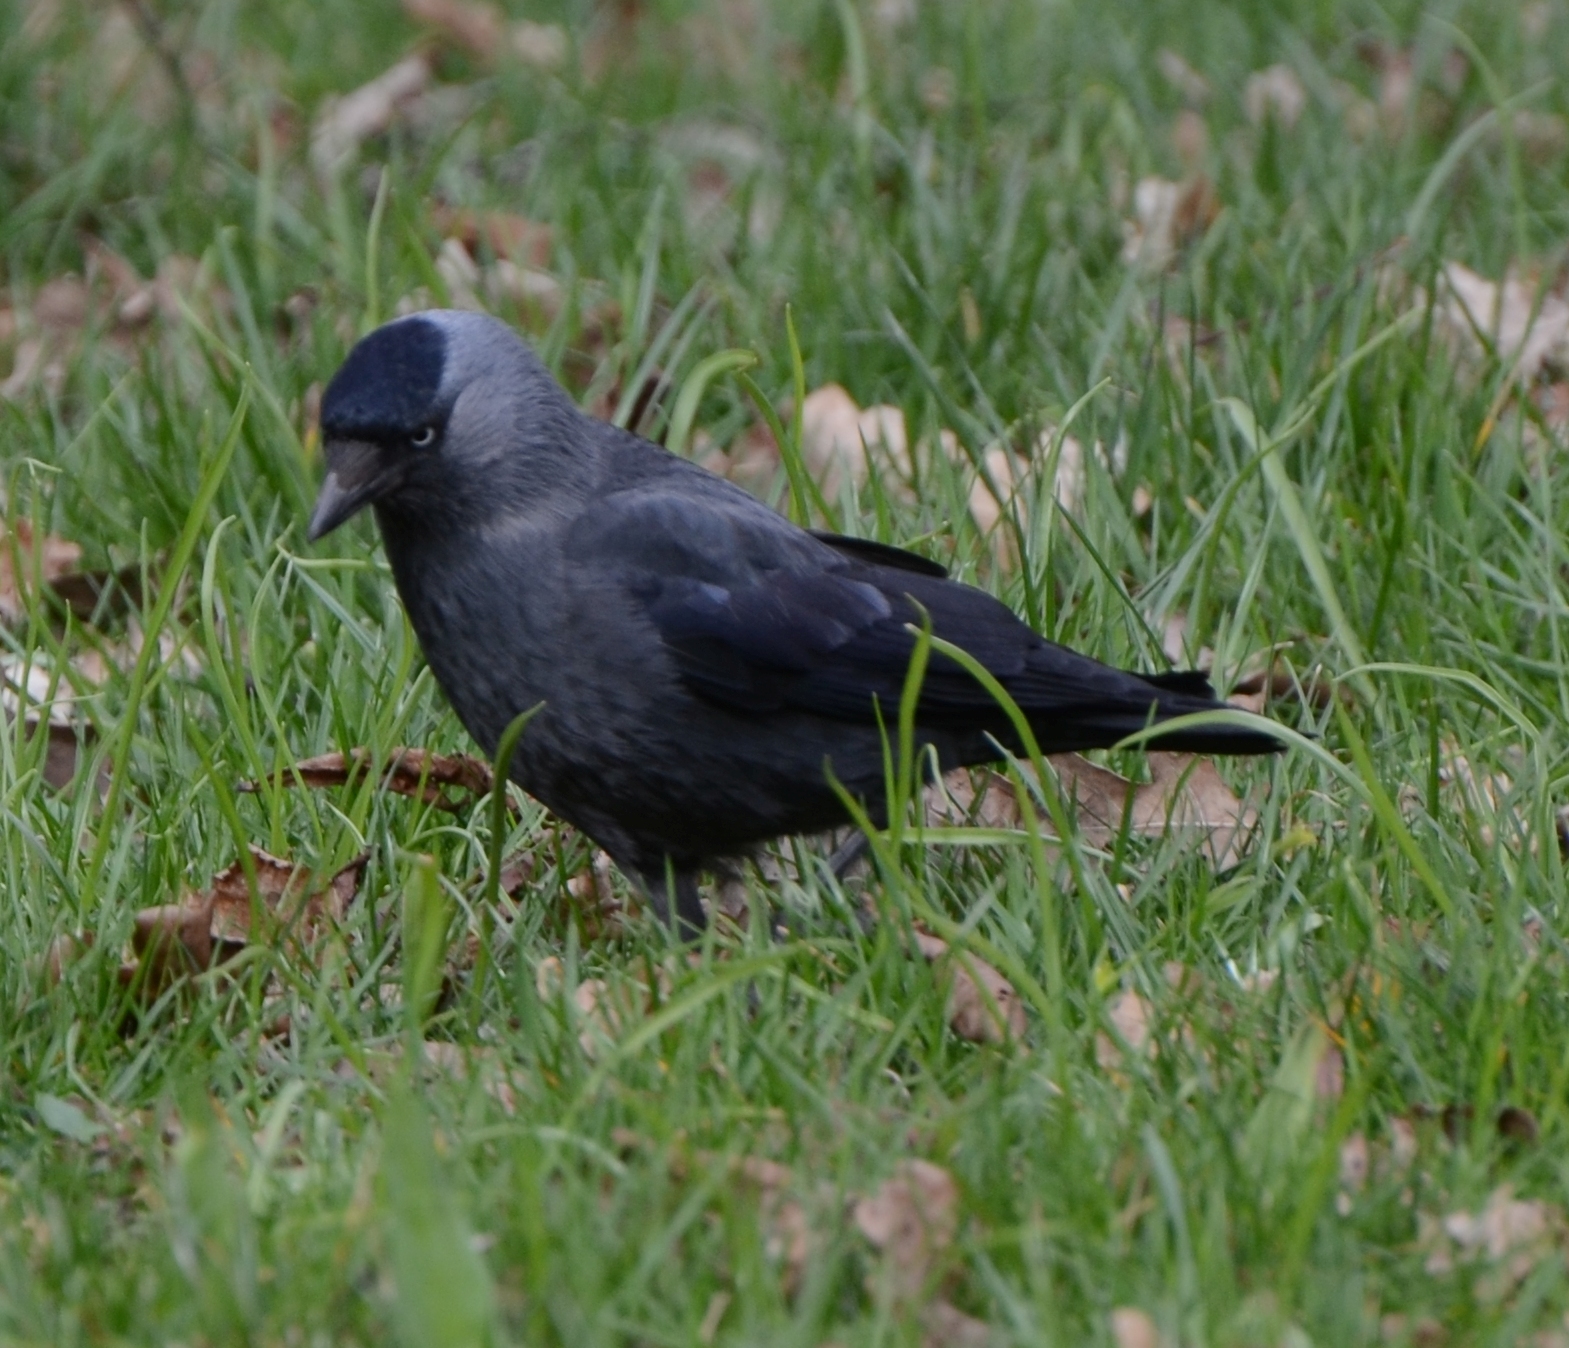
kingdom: Animalia
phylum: Chordata
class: Aves
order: Passeriformes
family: Corvidae
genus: Coloeus
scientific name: Coloeus monedula
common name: Western jackdaw
